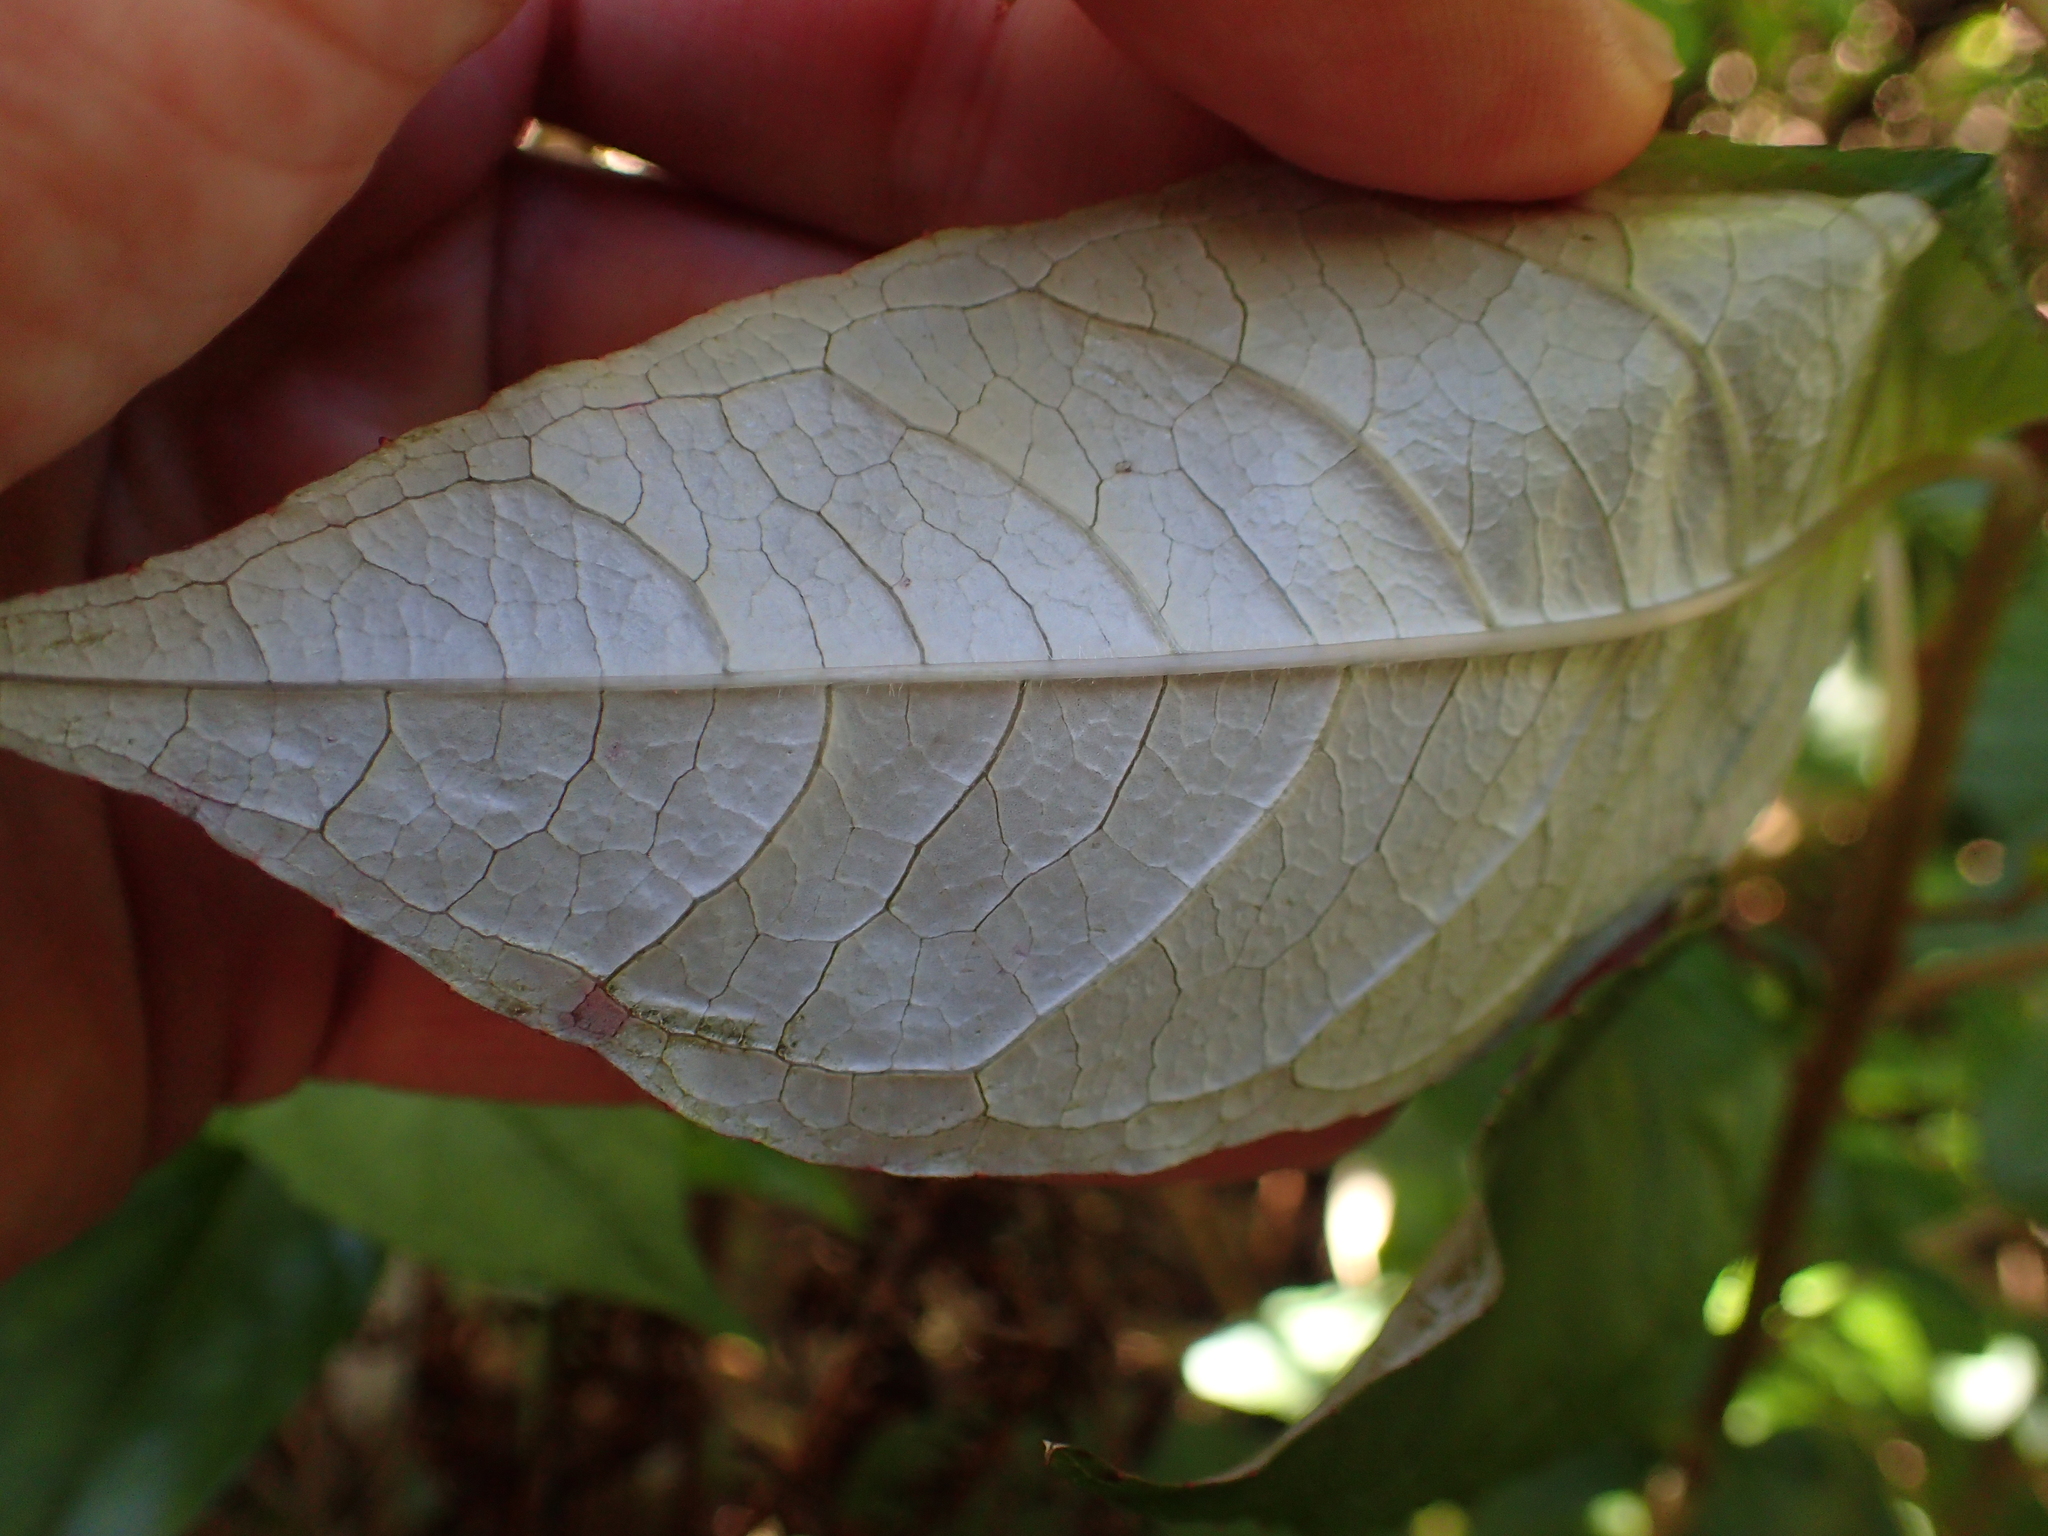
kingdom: Plantae
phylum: Tracheophyta
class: Magnoliopsida
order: Myrtales
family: Onagraceae
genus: Fuchsia
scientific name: Fuchsia excorticata
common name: Tree fuchsia
